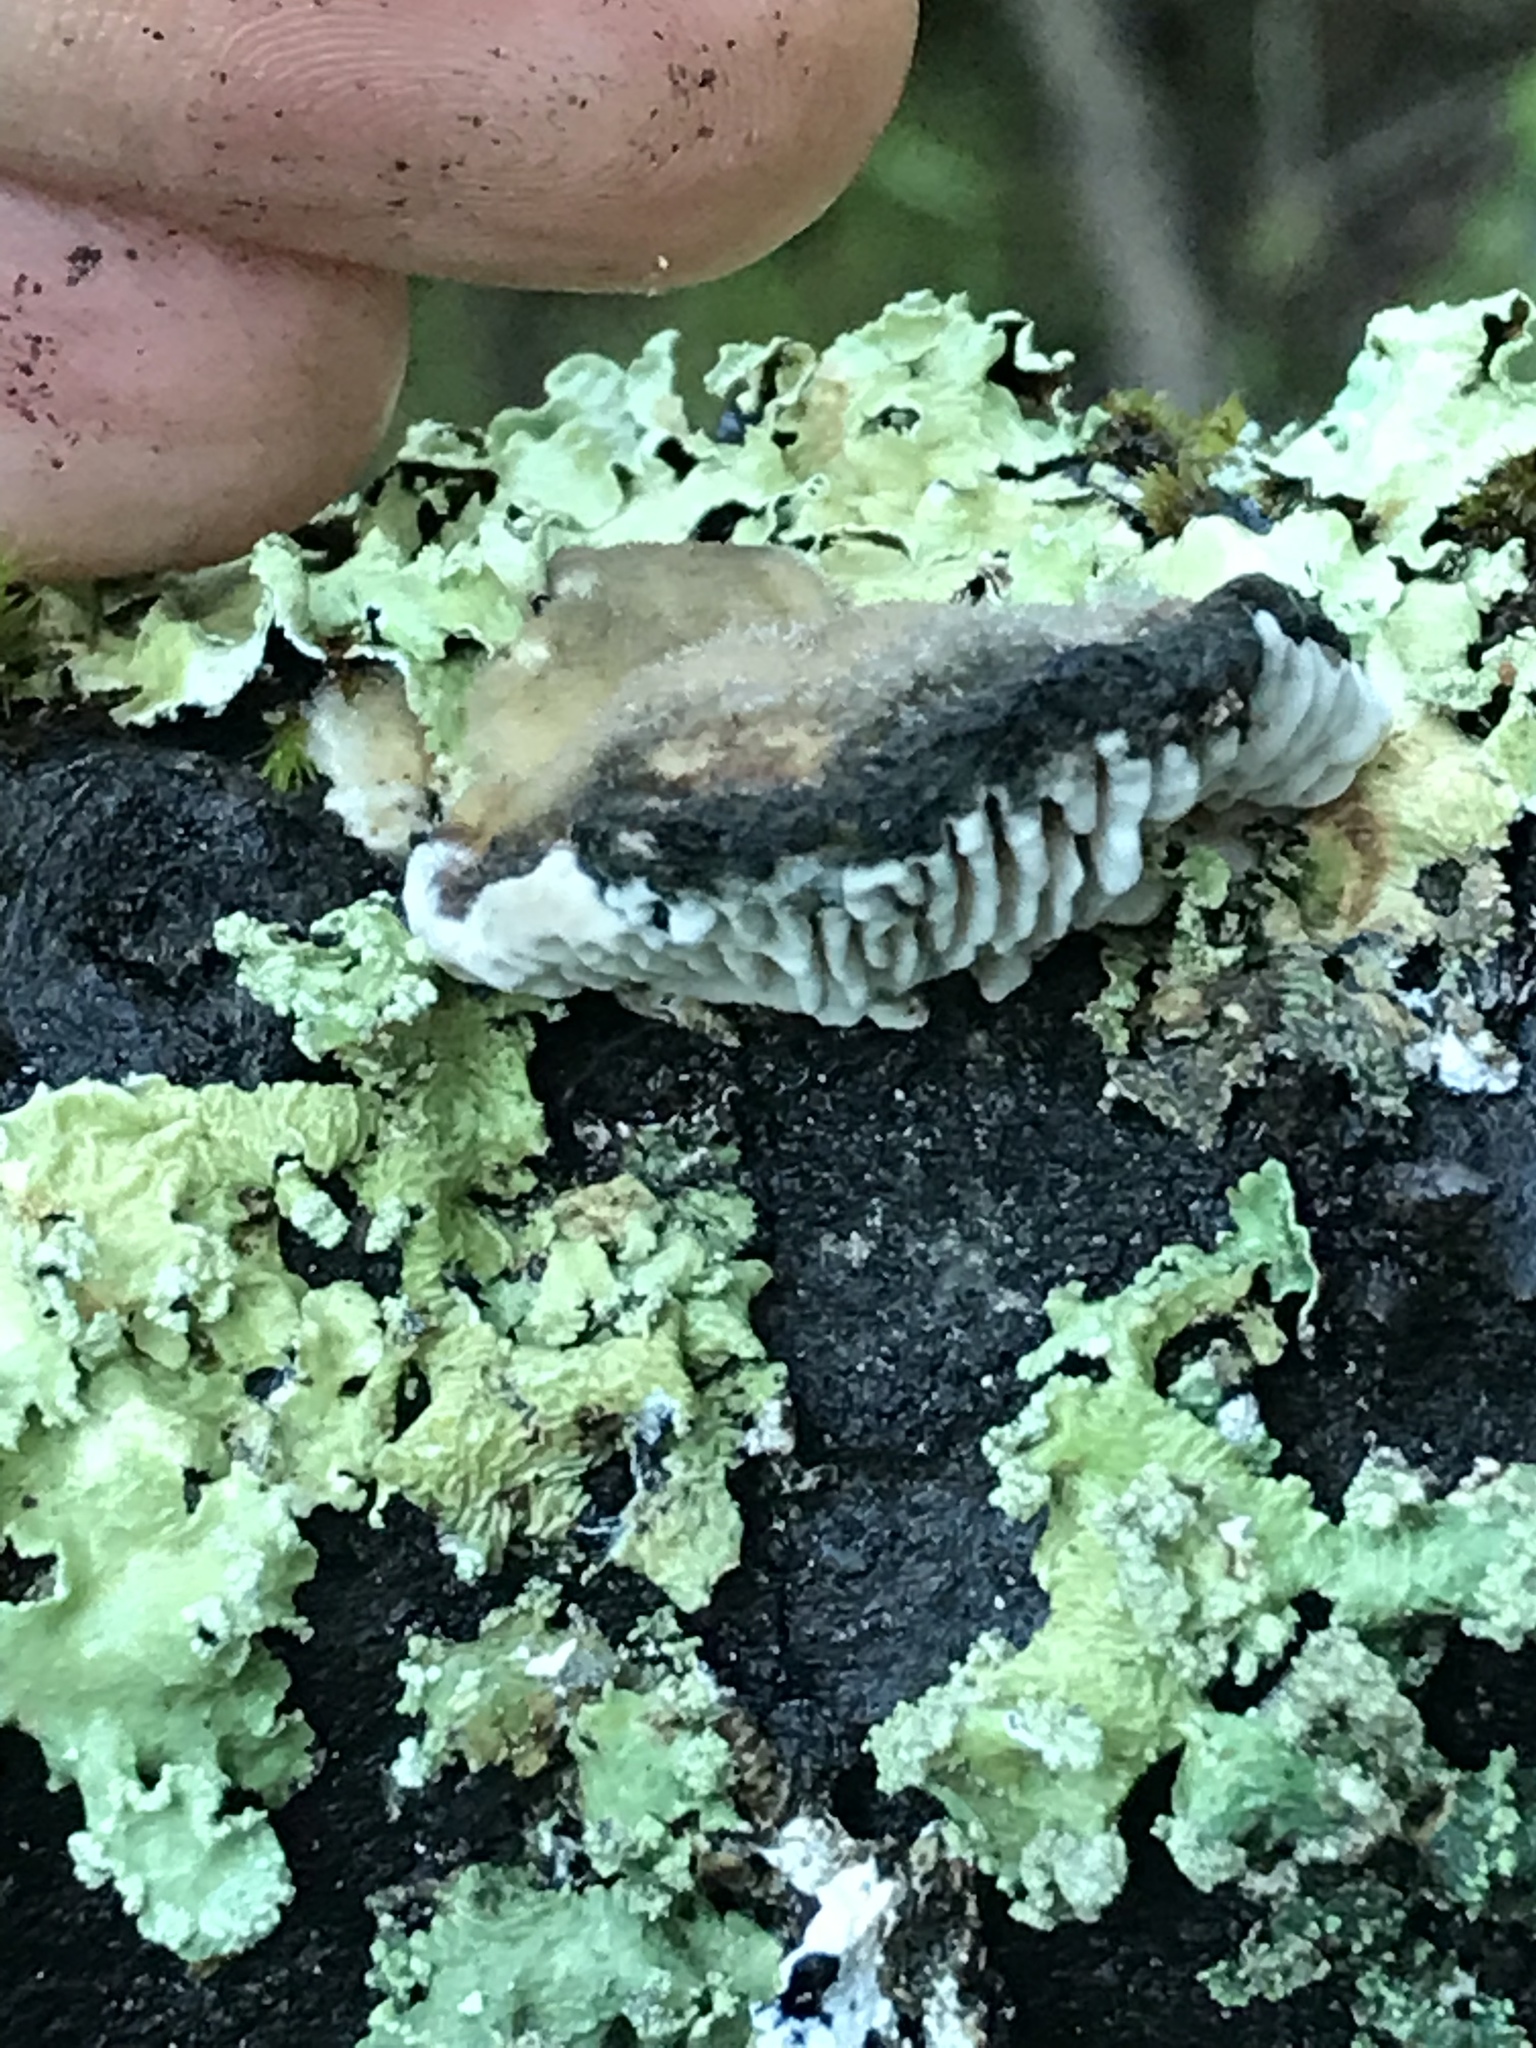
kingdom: Fungi
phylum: Basidiomycota
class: Agaricomycetes
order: Polyporales
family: Polyporaceae
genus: Lenzites
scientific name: Lenzites betulinus
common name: Birch mazegill
